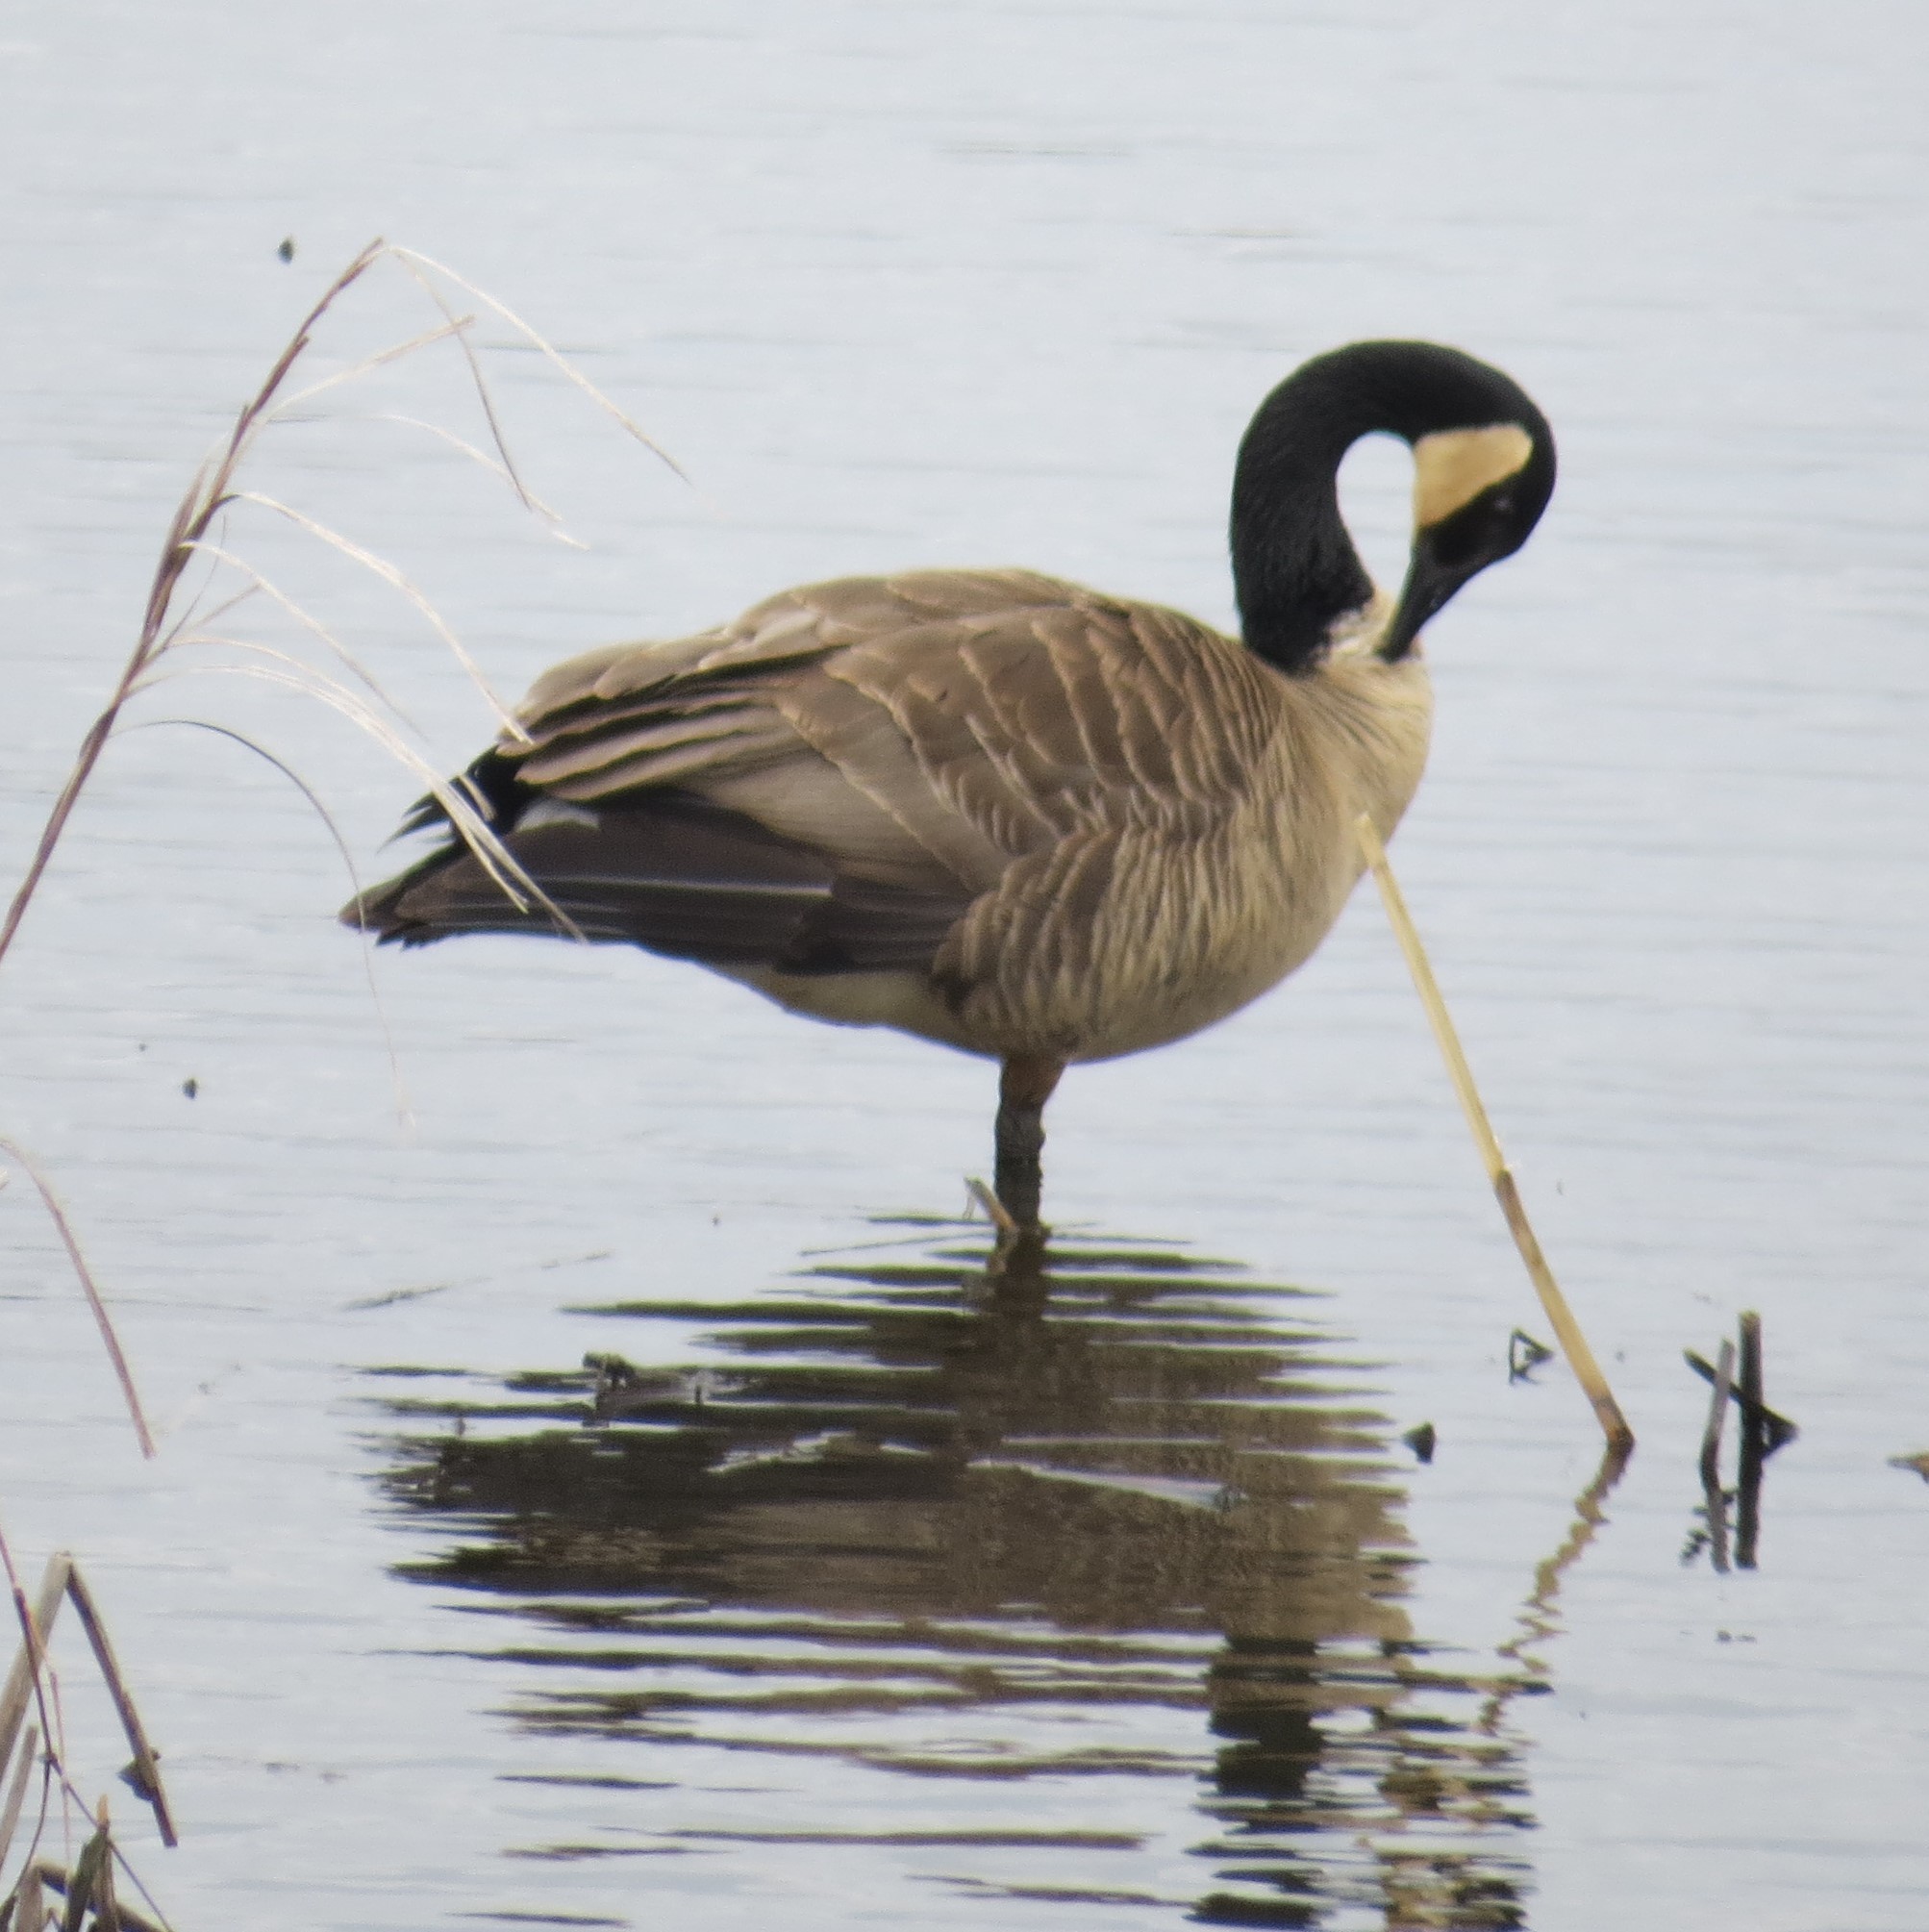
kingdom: Animalia
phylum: Chordata
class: Aves
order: Anseriformes
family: Anatidae
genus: Branta
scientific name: Branta canadensis
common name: Canada goose
